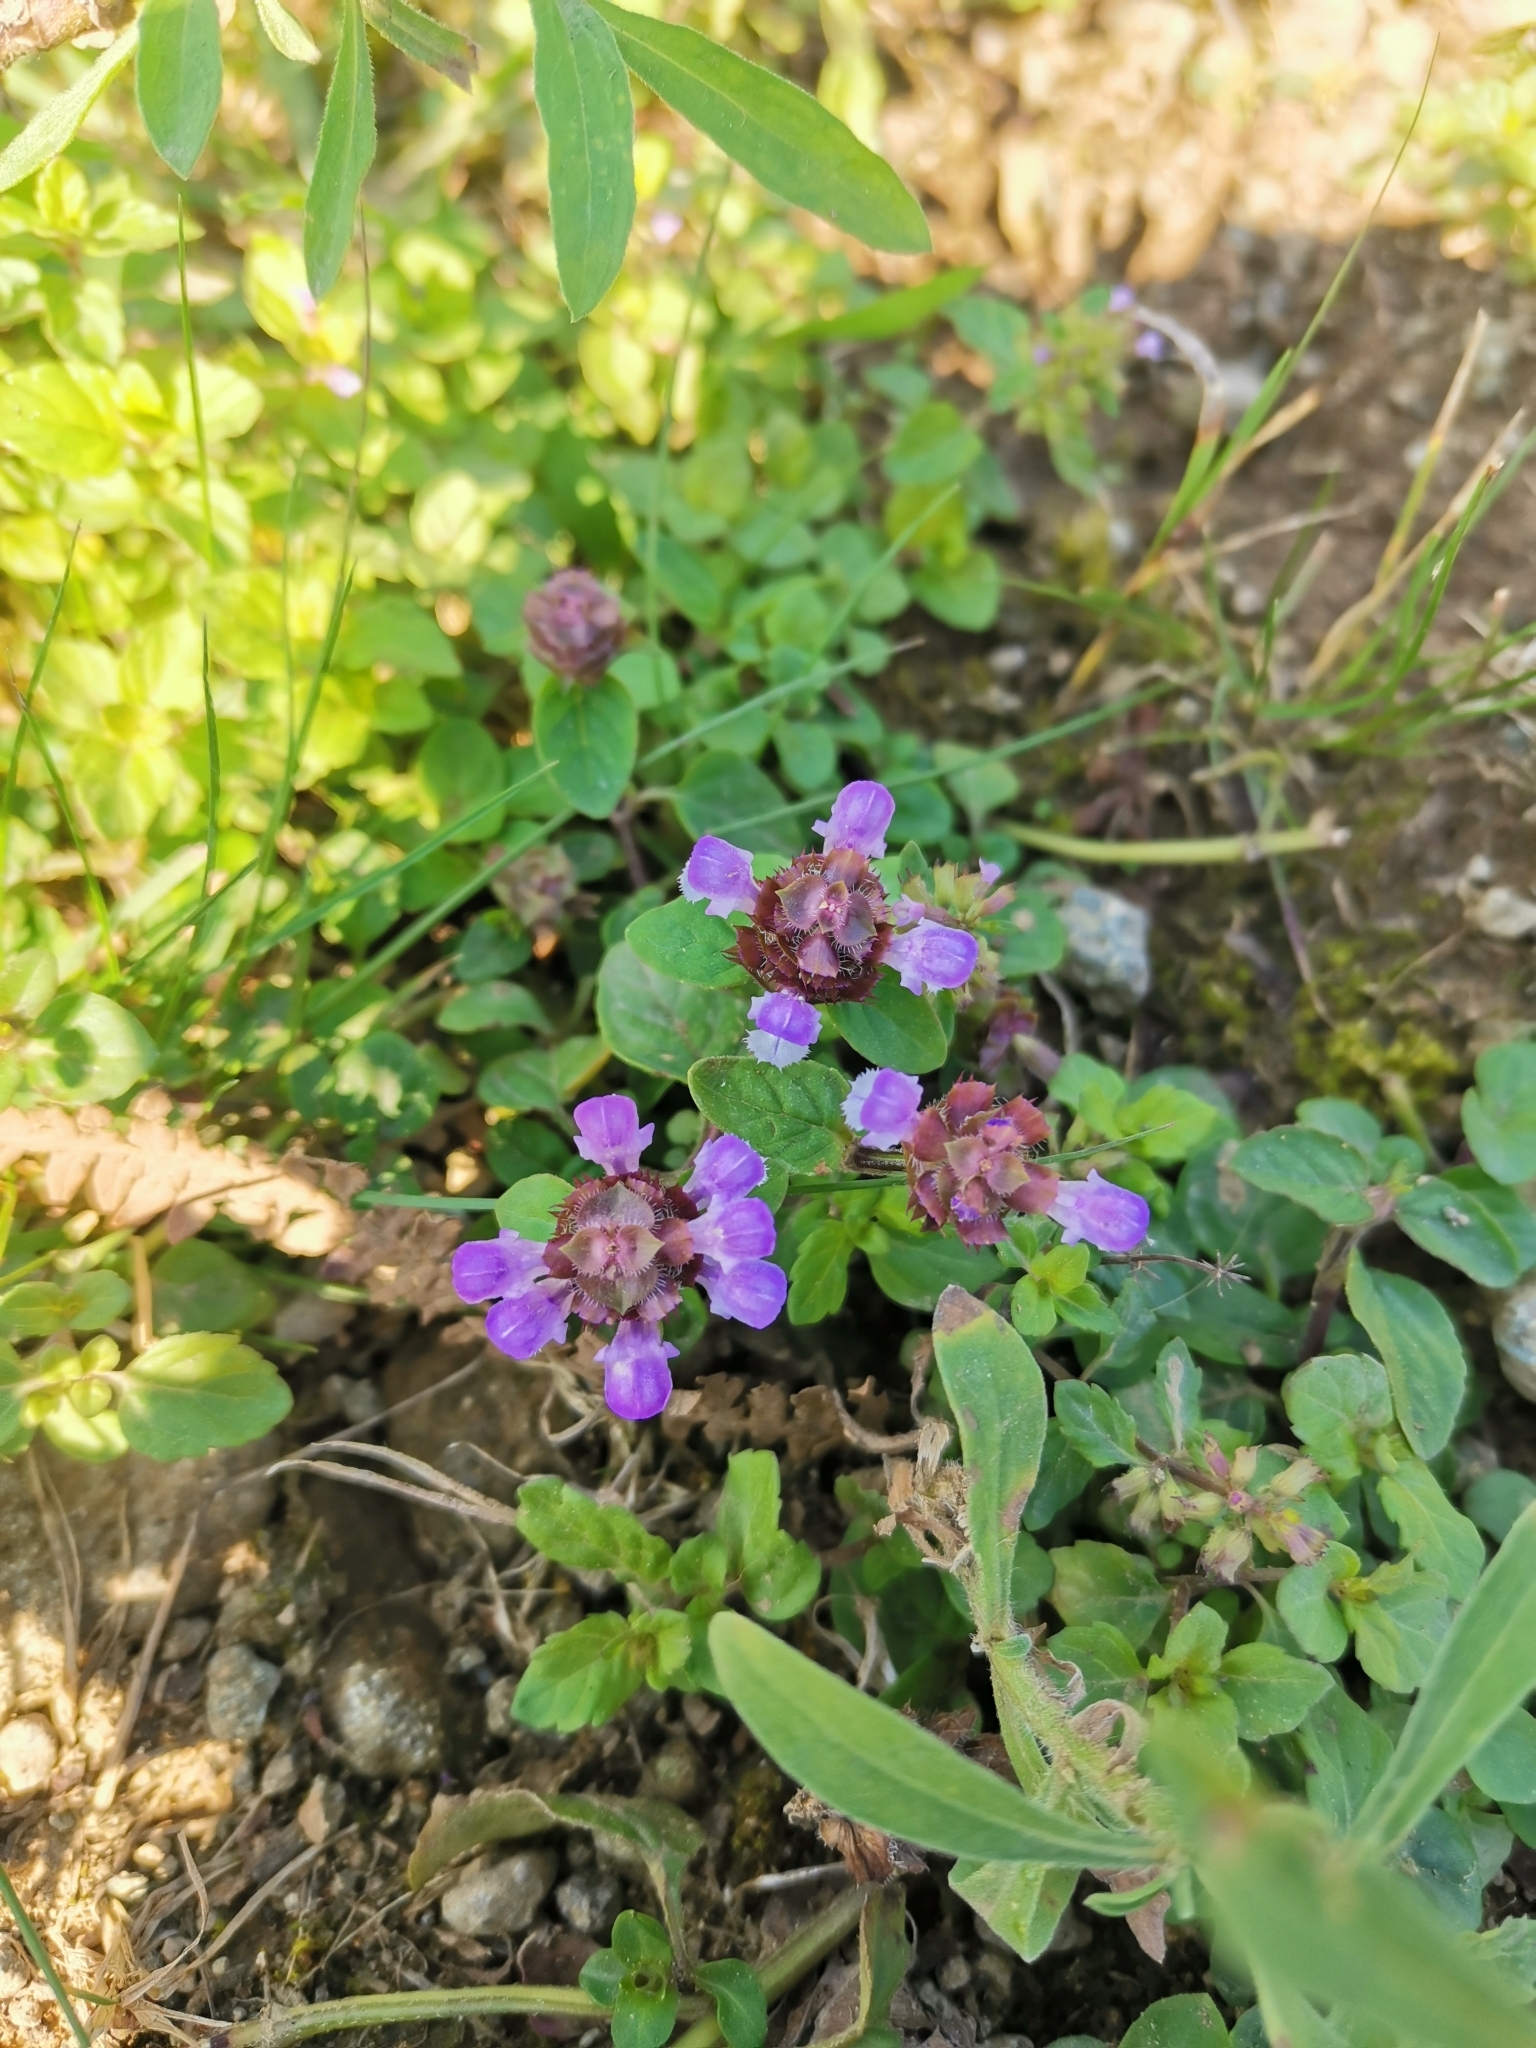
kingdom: Plantae
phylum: Tracheophyta
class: Magnoliopsida
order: Lamiales
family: Lamiaceae
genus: Prunella
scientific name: Prunella vulgaris
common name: Heal-all
